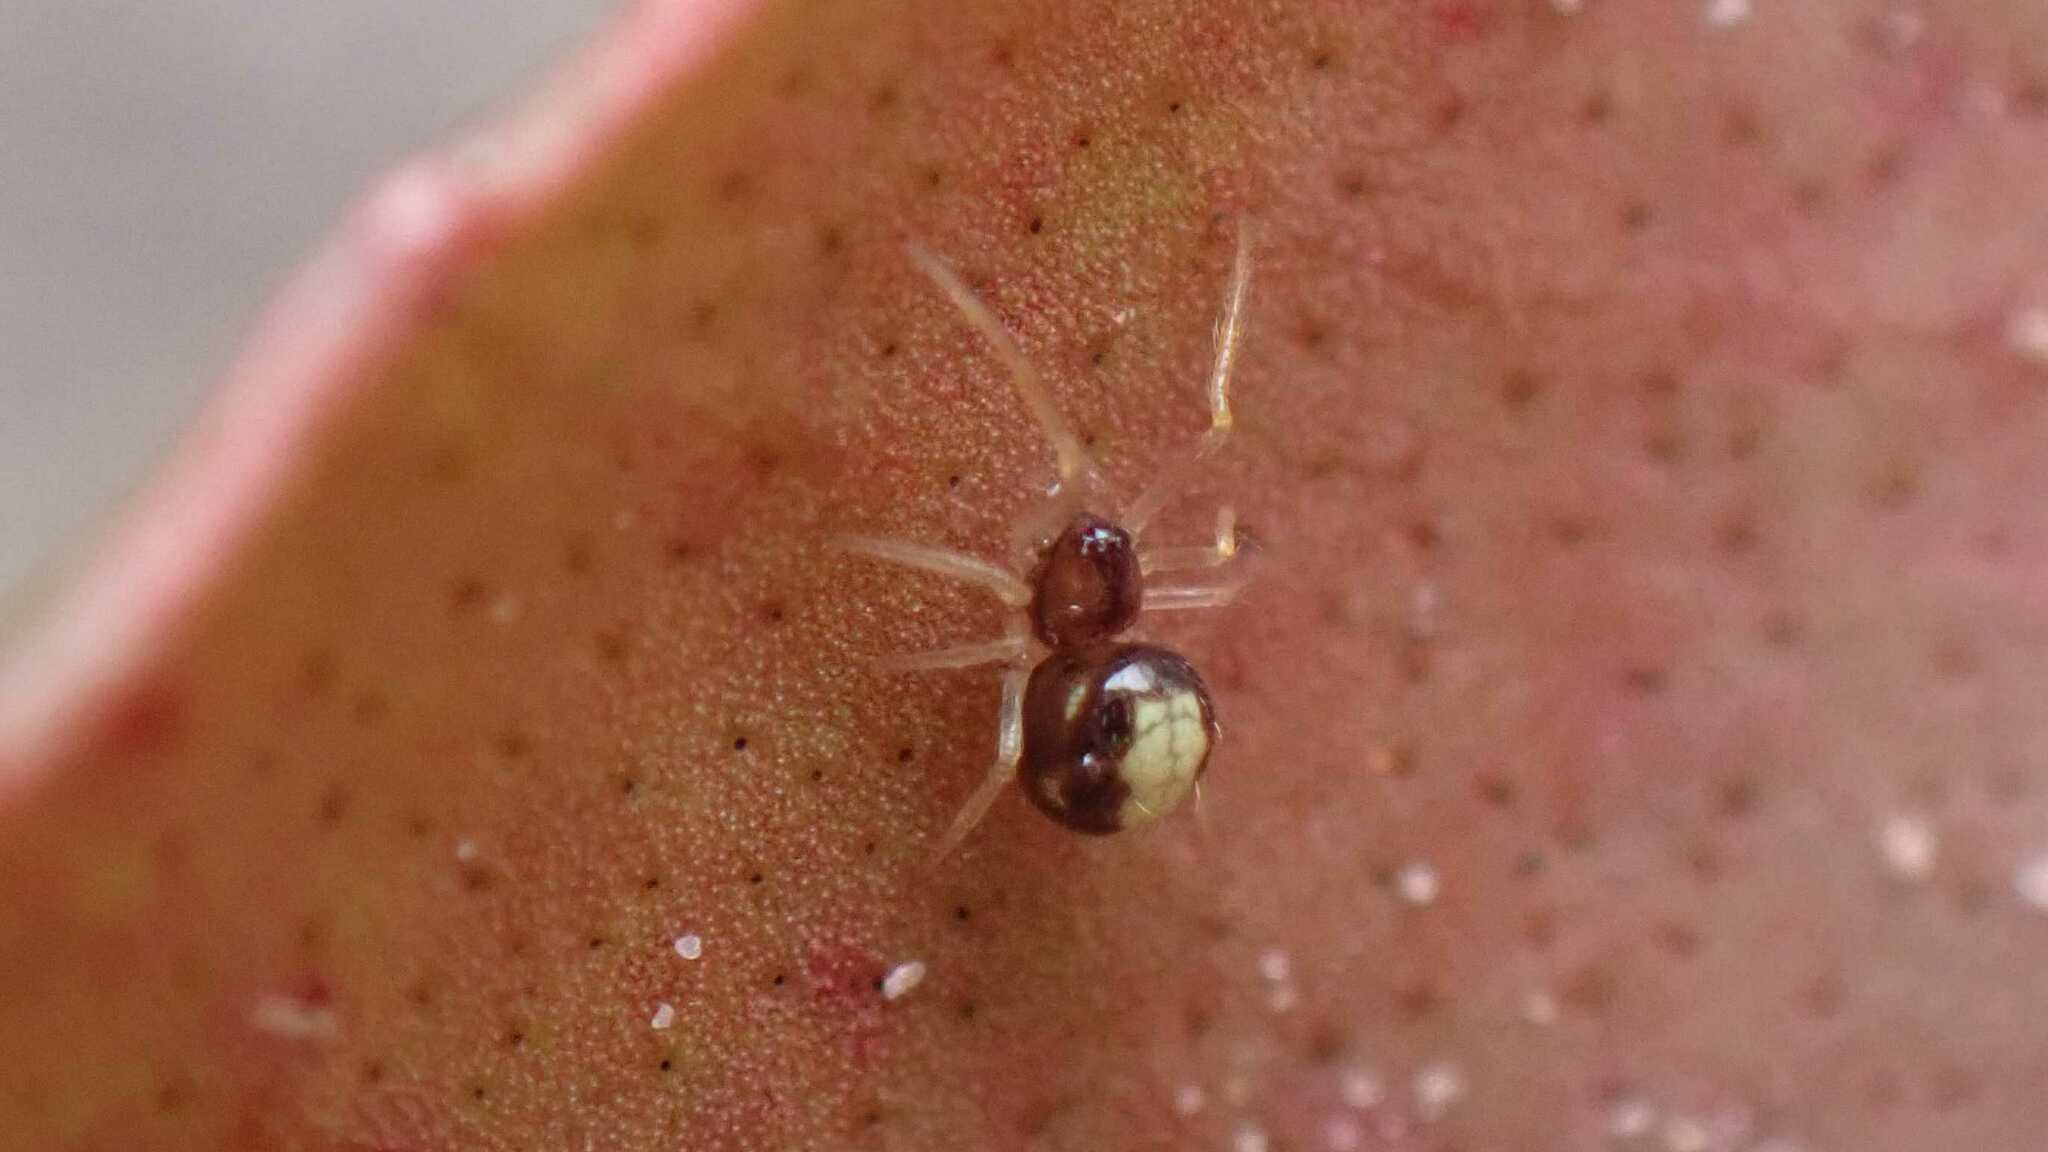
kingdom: Animalia
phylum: Arthropoda
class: Arachnida
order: Araneae
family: Theridiidae
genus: Neottiura
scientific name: Neottiura bimaculata
